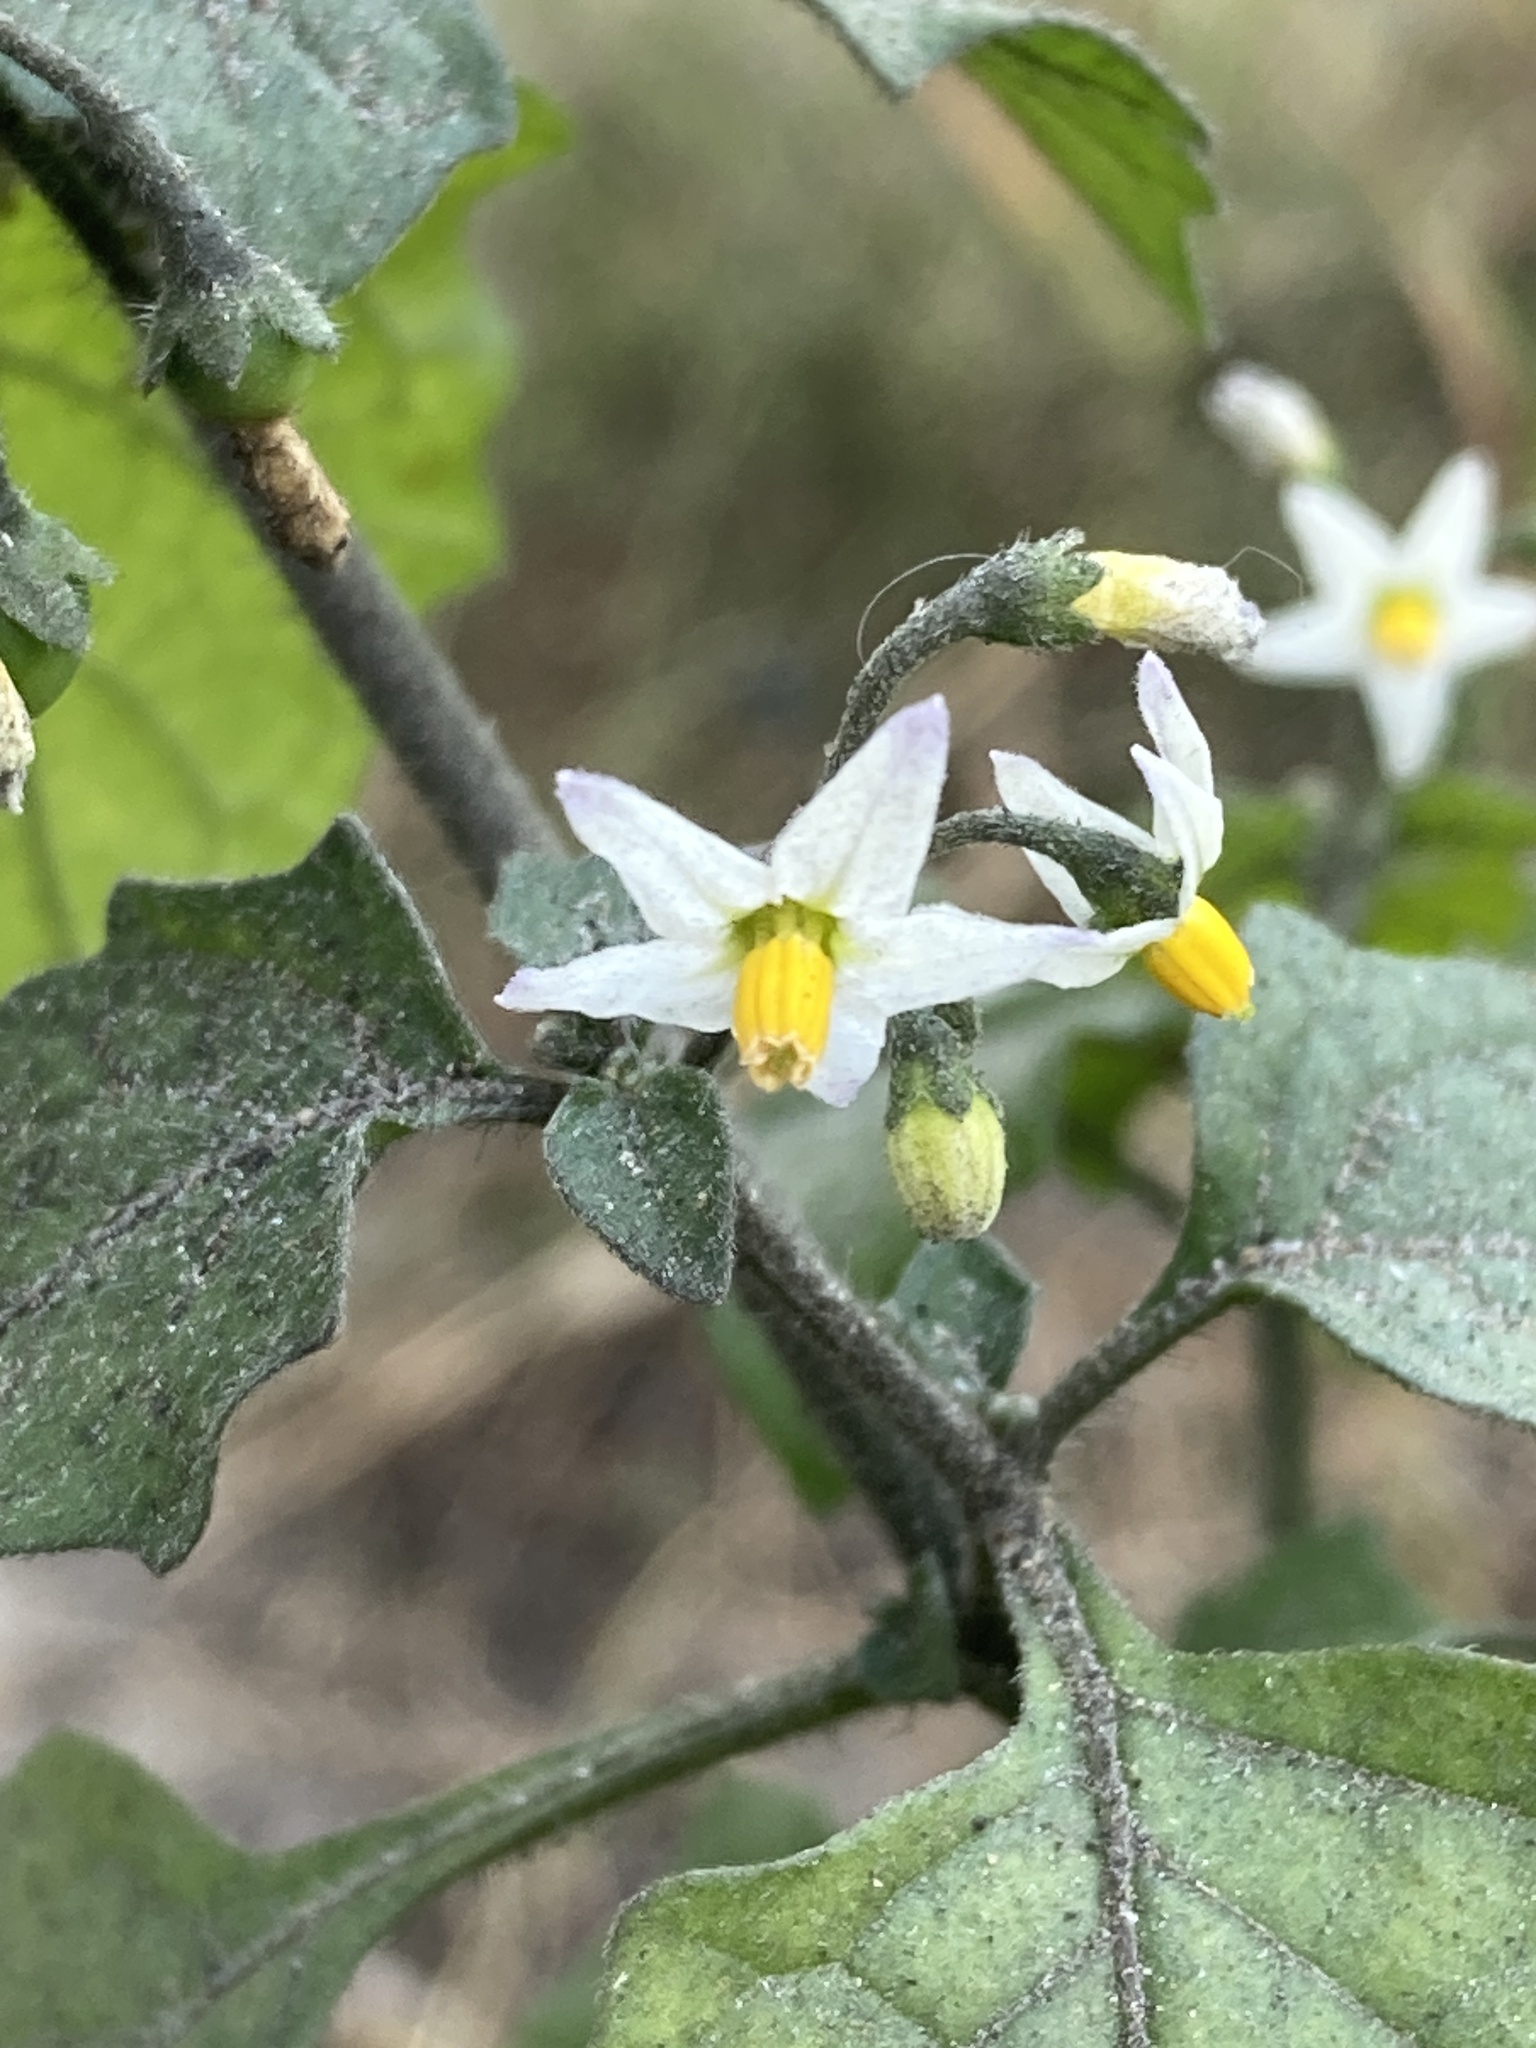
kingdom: Plantae
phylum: Tracheophyta
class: Magnoliopsida
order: Solanales
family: Solanaceae
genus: Solanum
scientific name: Solanum nigrum
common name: Black nightshade
